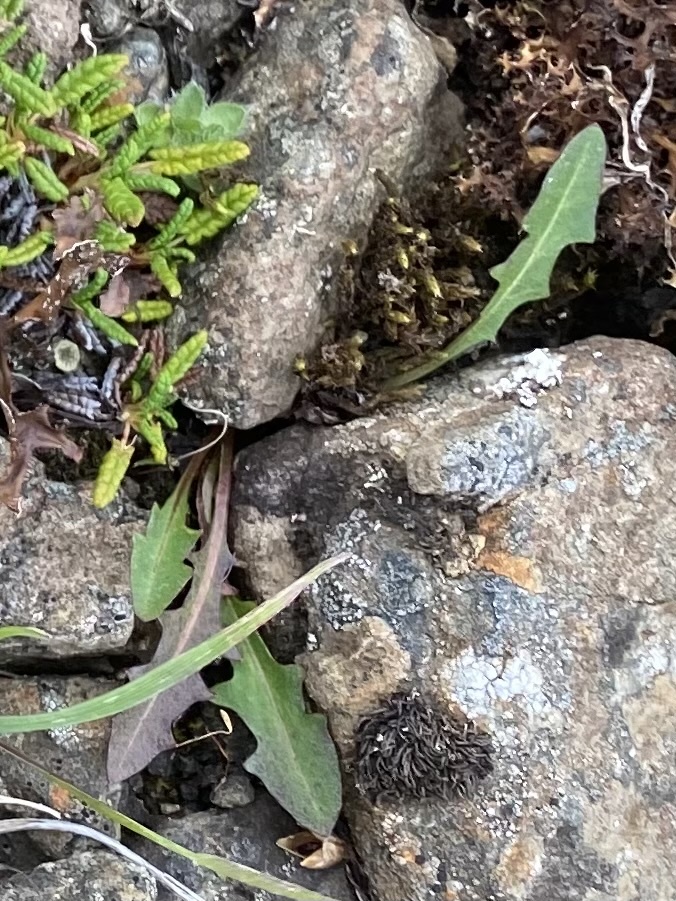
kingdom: Plantae
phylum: Tracheophyta
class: Magnoliopsida
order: Asterales
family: Asteraceae
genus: Taraxacum
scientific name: Taraxacum
